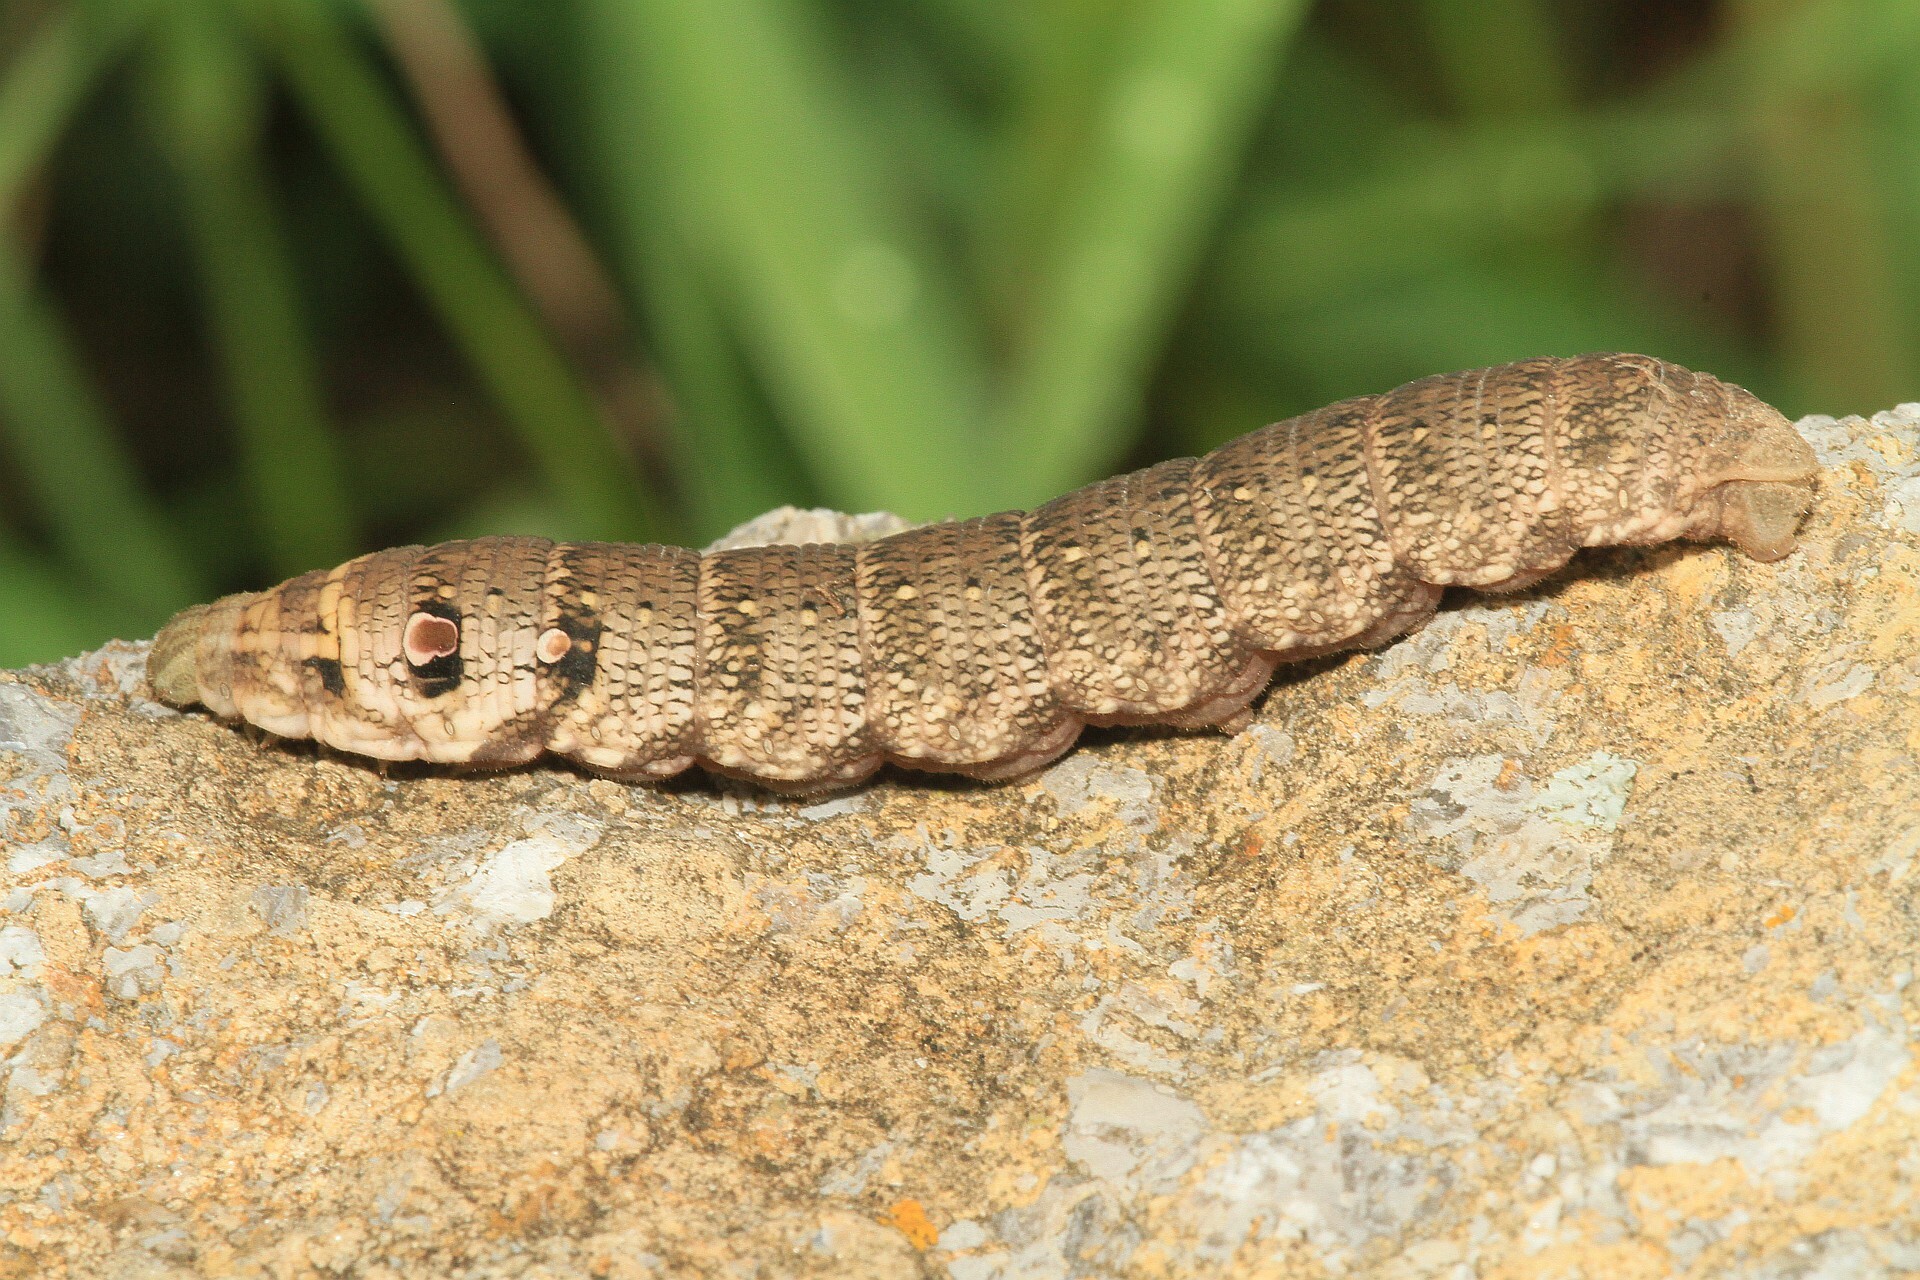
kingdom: Animalia
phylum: Arthropoda
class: Insecta
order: Lepidoptera
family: Sphingidae
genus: Deilephila
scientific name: Deilephila porcellus
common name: Small elephant hawk-moth
